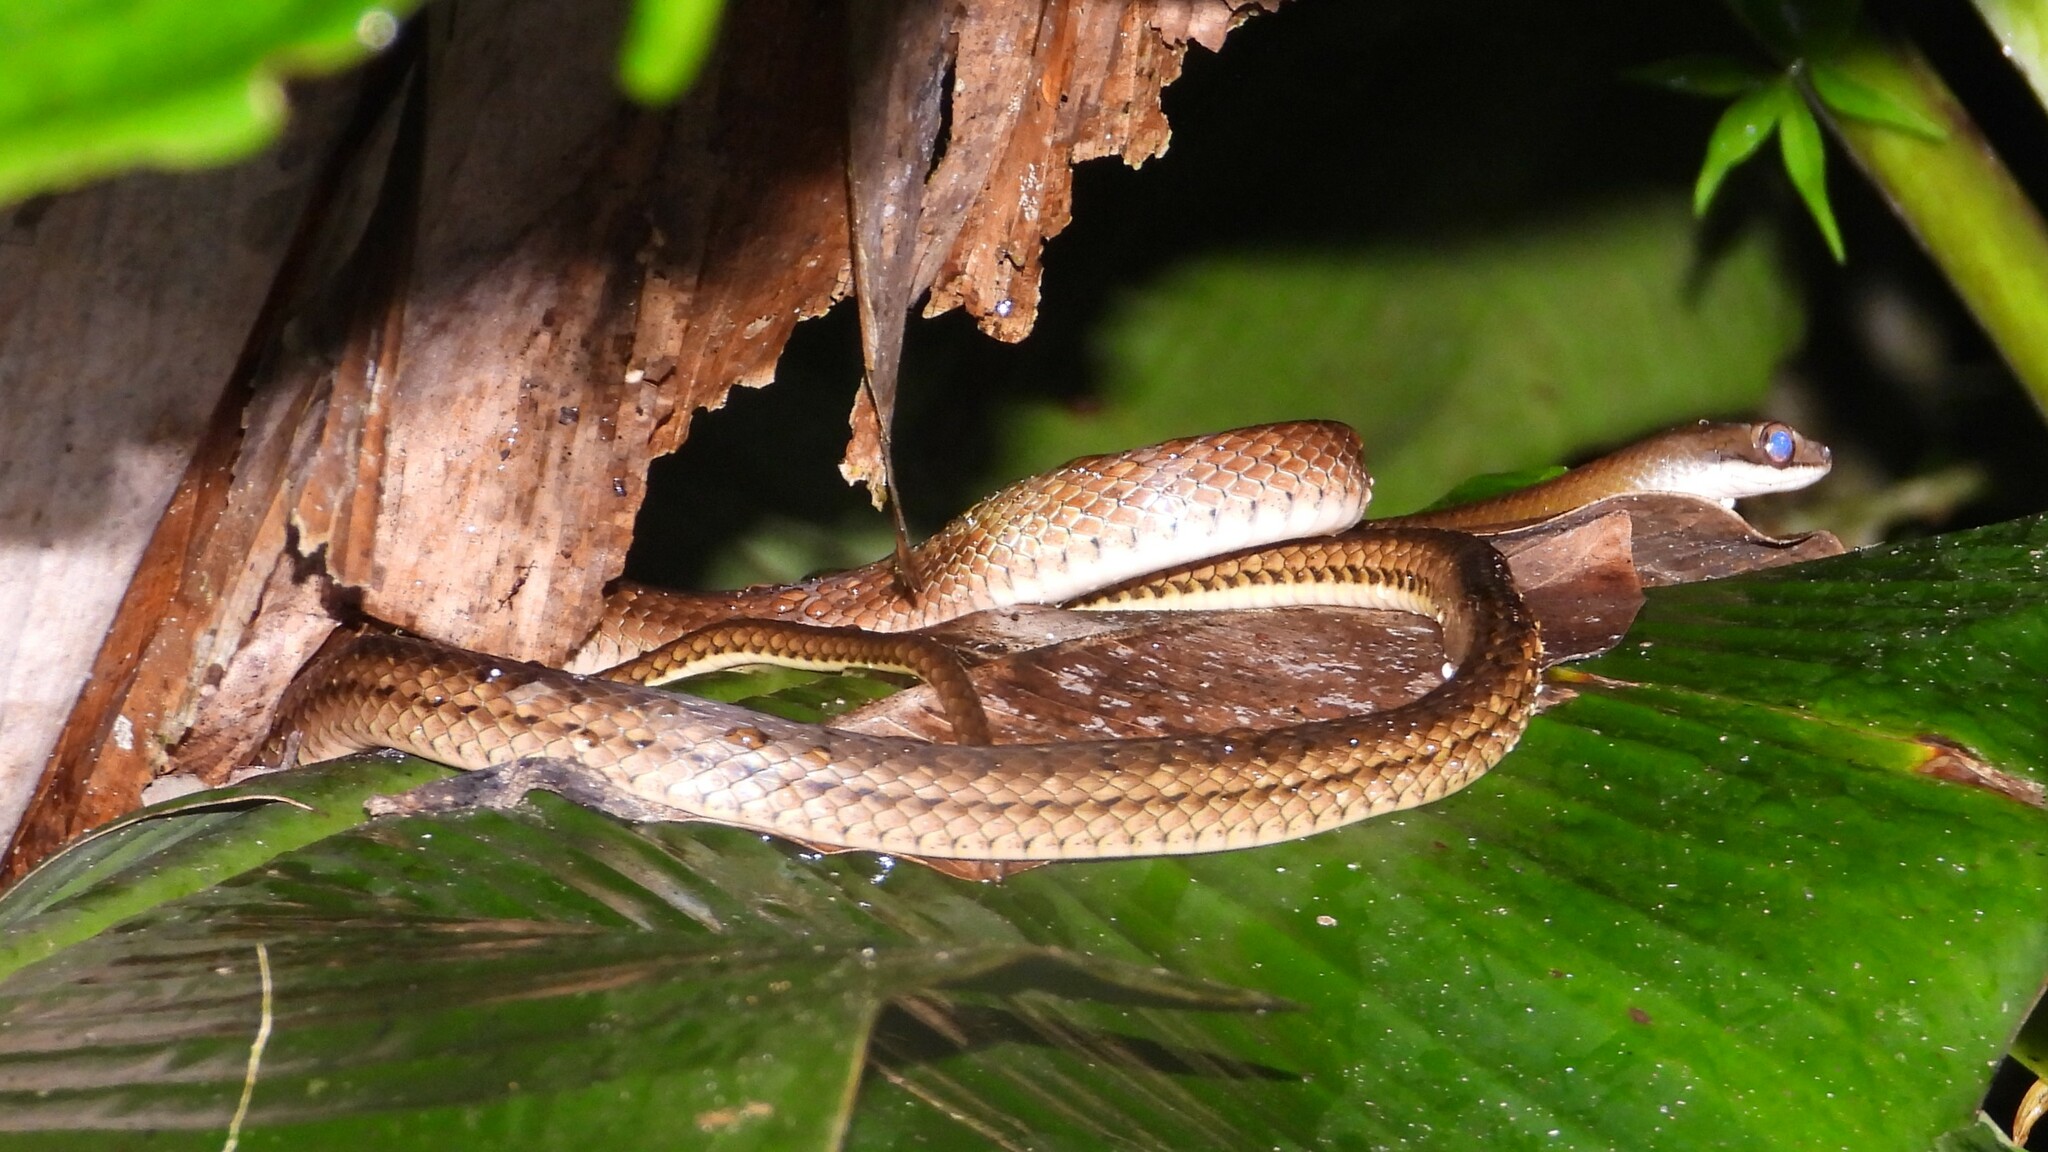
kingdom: Animalia
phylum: Chordata
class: Squamata
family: Colubridae
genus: Dendrophidion
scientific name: Dendrophidion percarinatum
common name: South american forest racer
